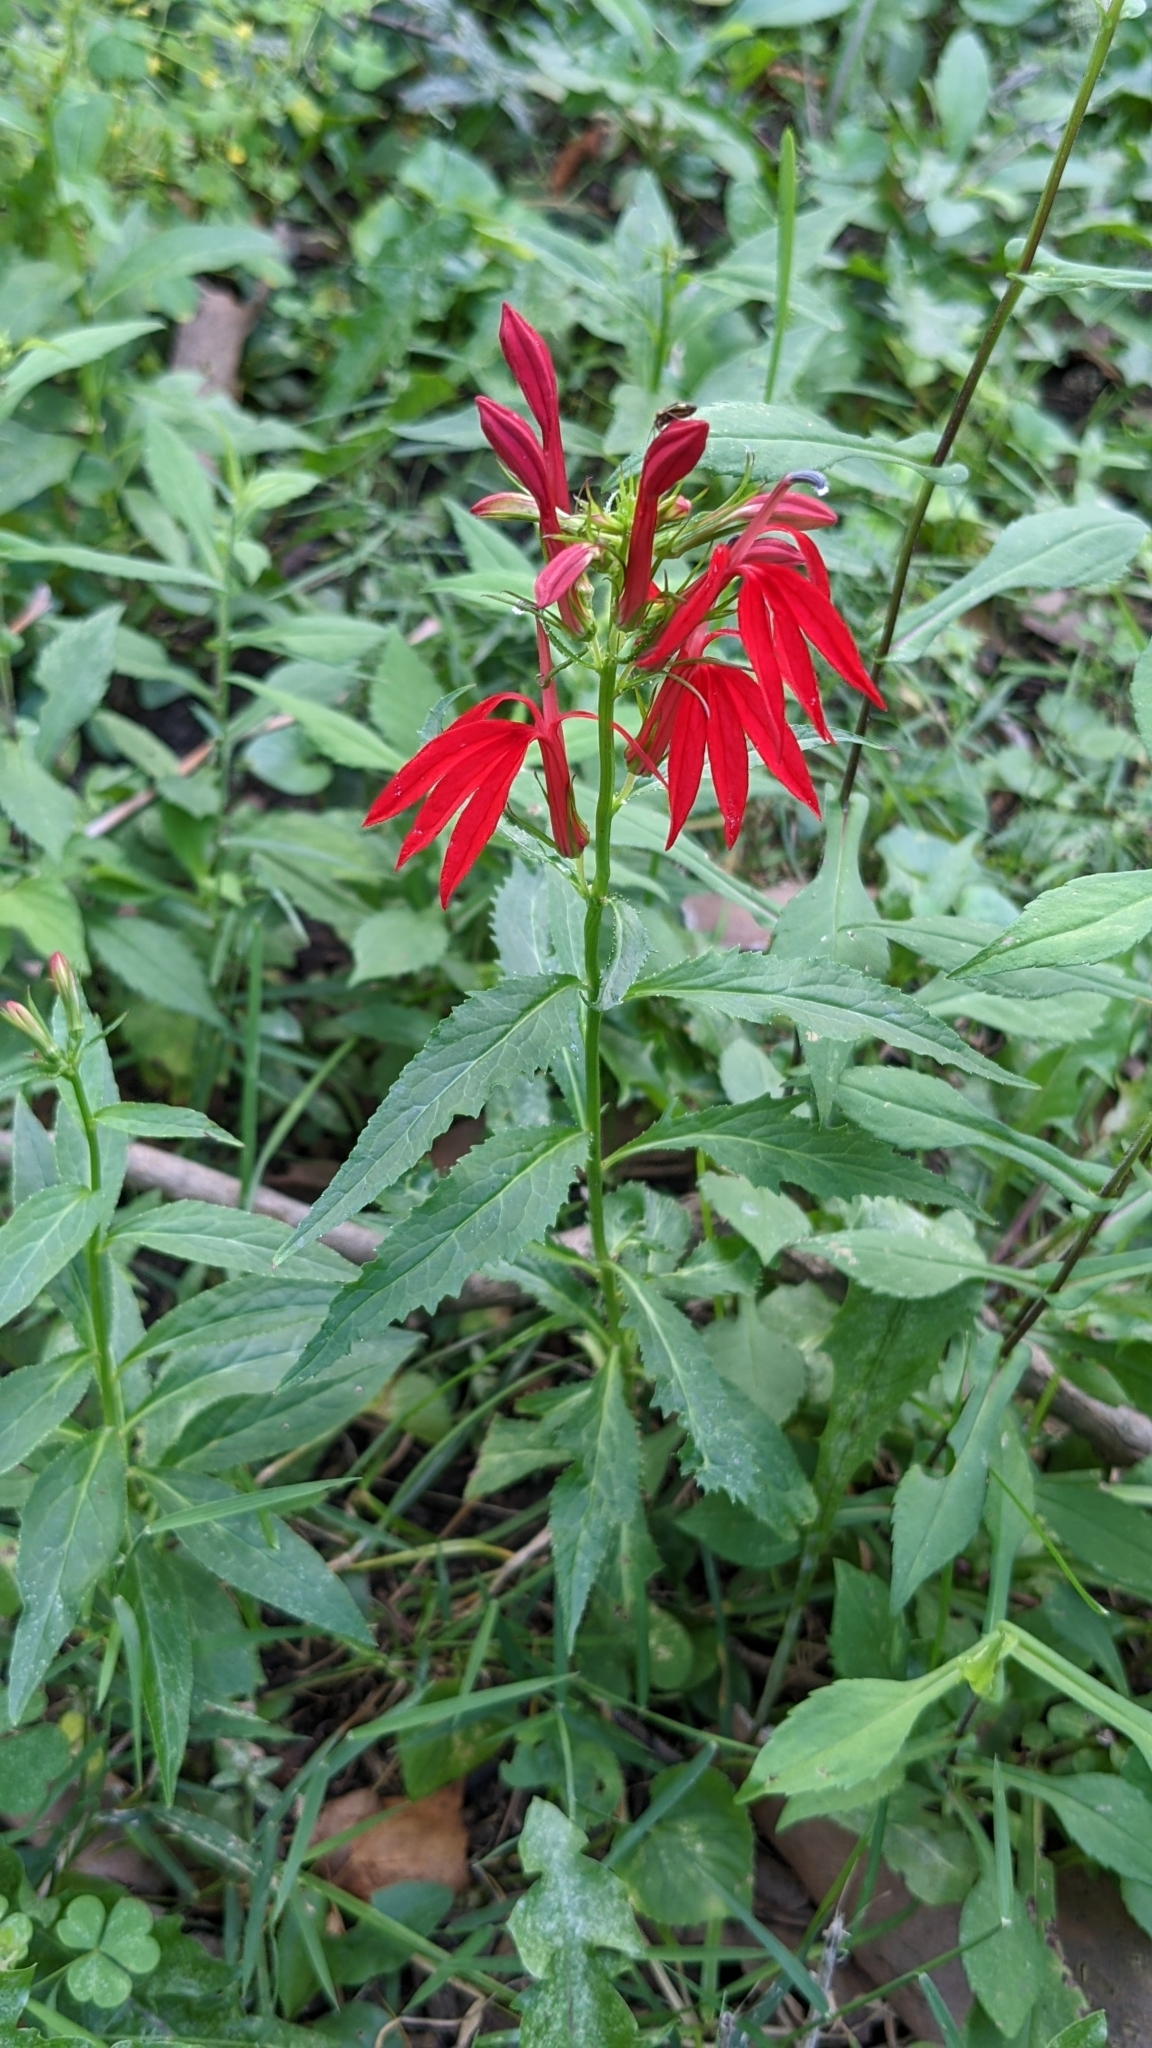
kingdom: Plantae
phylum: Tracheophyta
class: Magnoliopsida
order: Asterales
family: Campanulaceae
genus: Lobelia
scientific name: Lobelia cardinalis
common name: Cardinal flower
